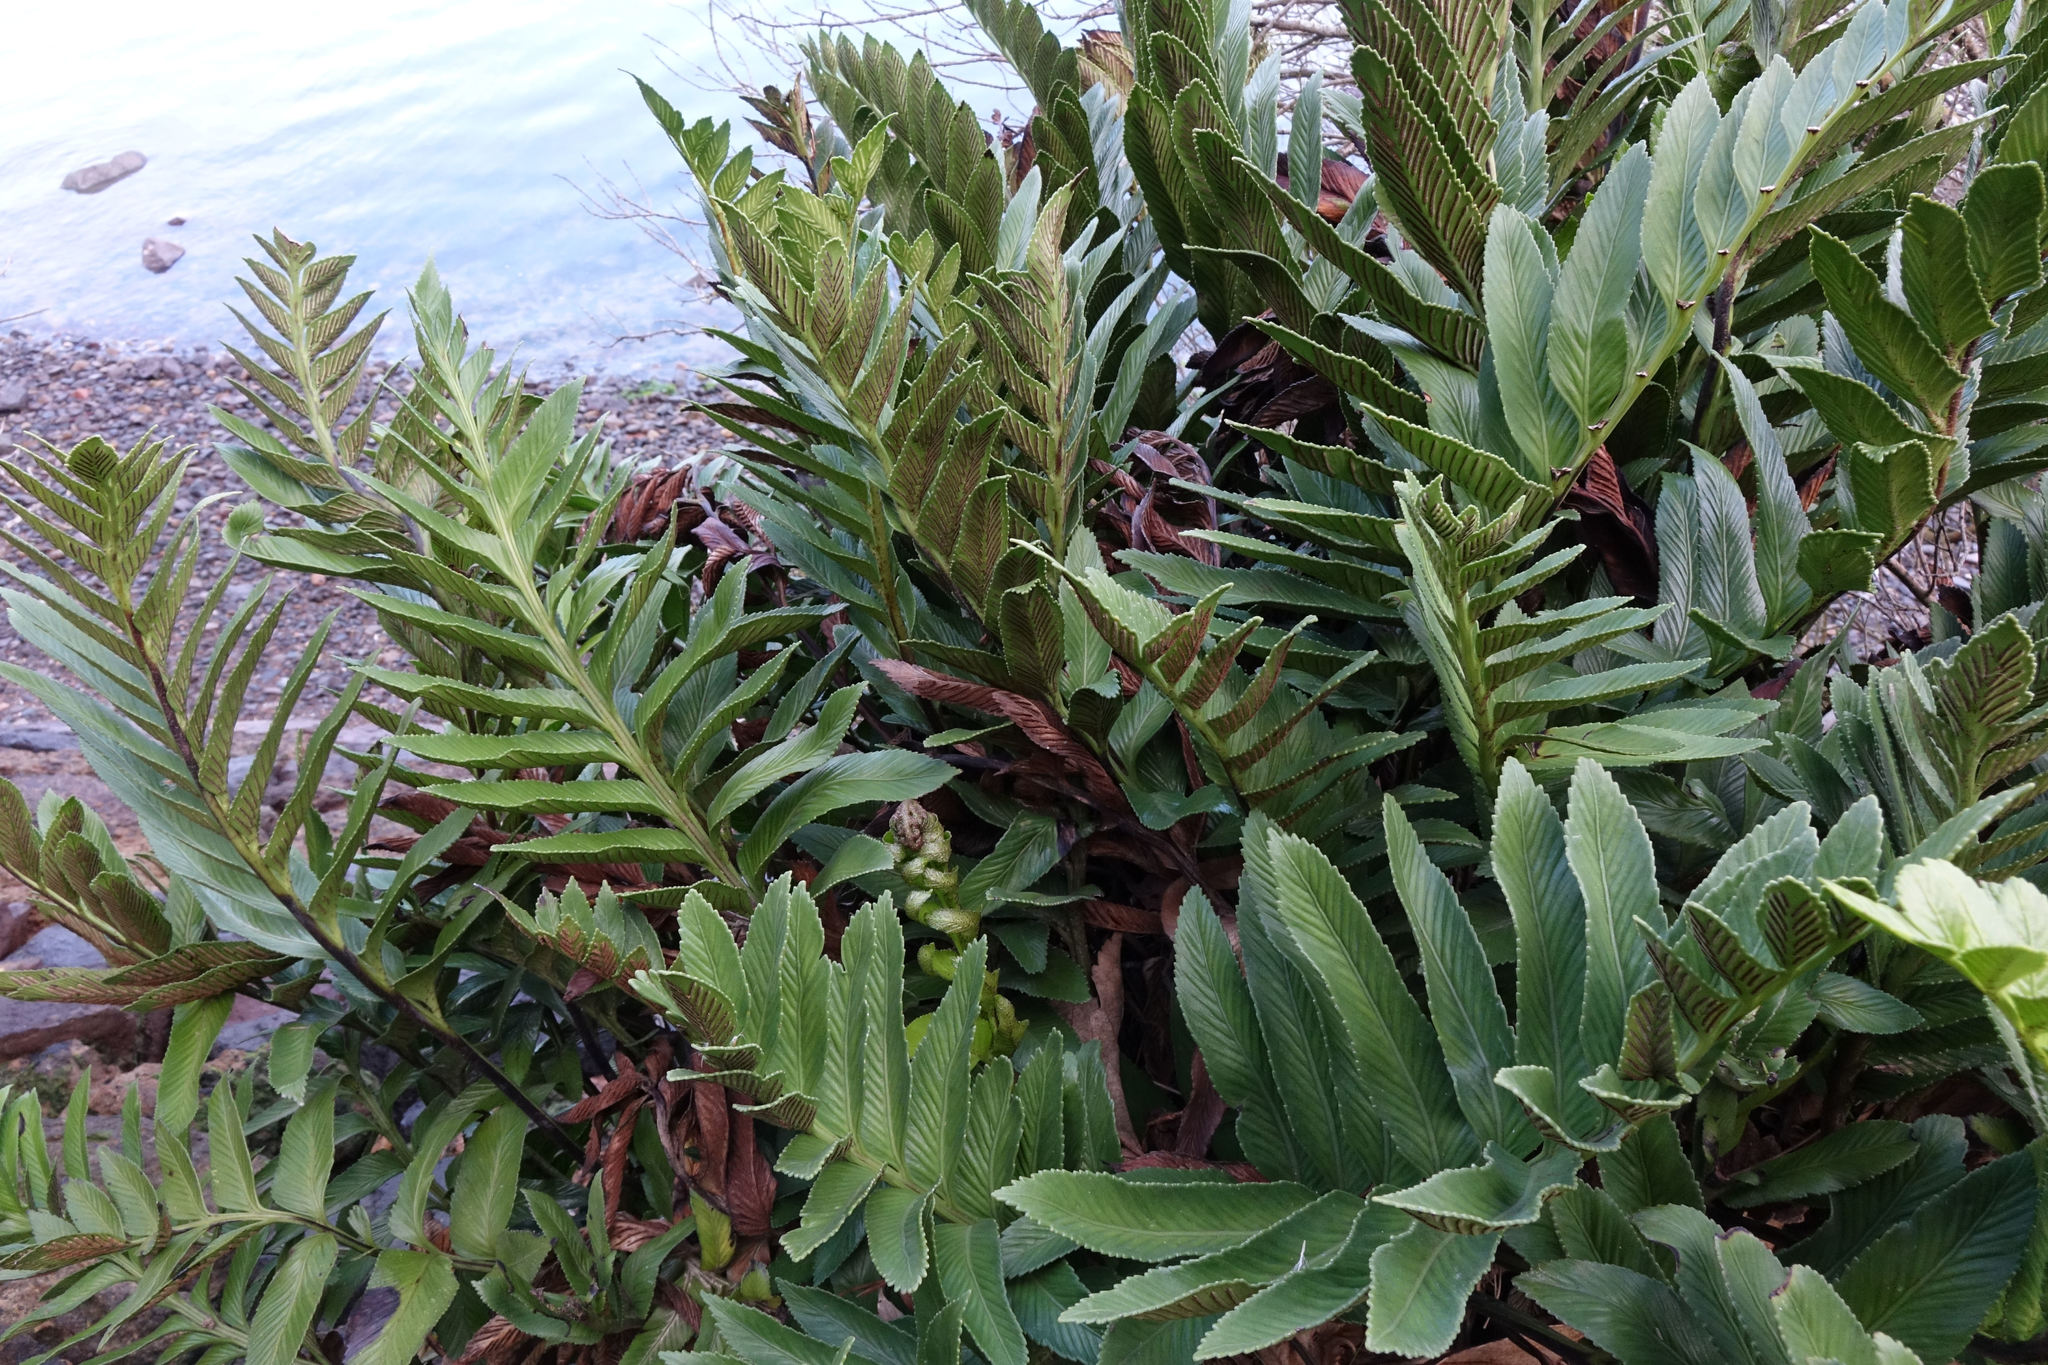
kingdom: Plantae
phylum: Tracheophyta
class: Polypodiopsida
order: Polypodiales
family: Aspleniaceae
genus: Asplenium
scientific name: Asplenium obtusatum
